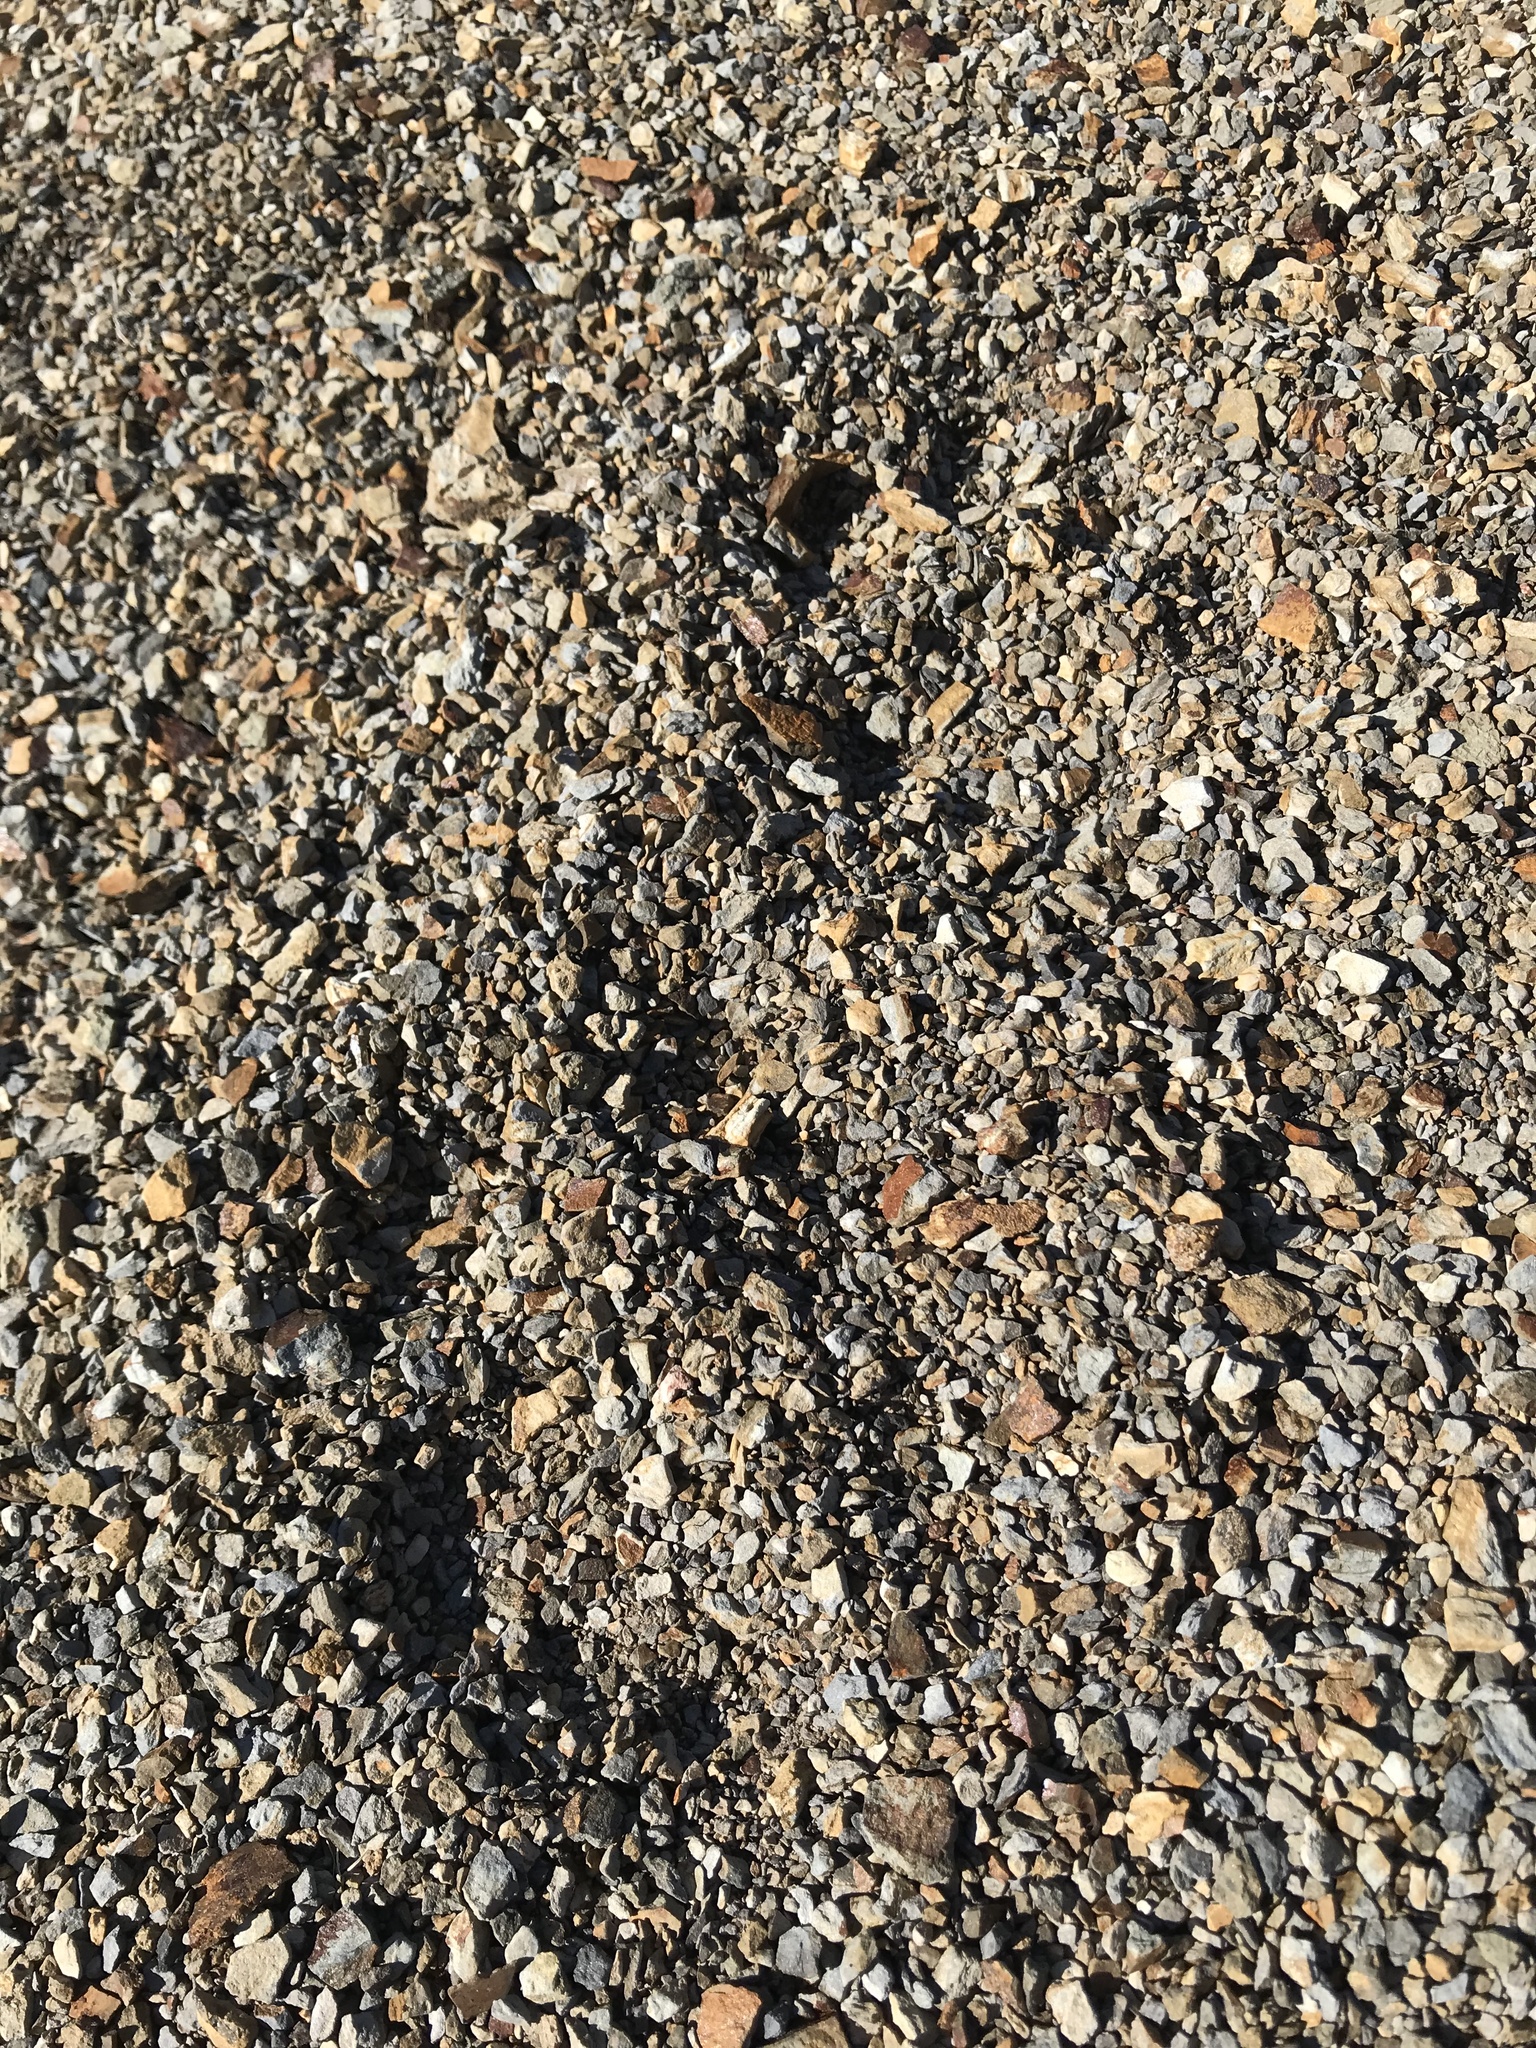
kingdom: Animalia
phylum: Chordata
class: Mammalia
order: Carnivora
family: Felidae
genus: Puma
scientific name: Puma concolor
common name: Puma
